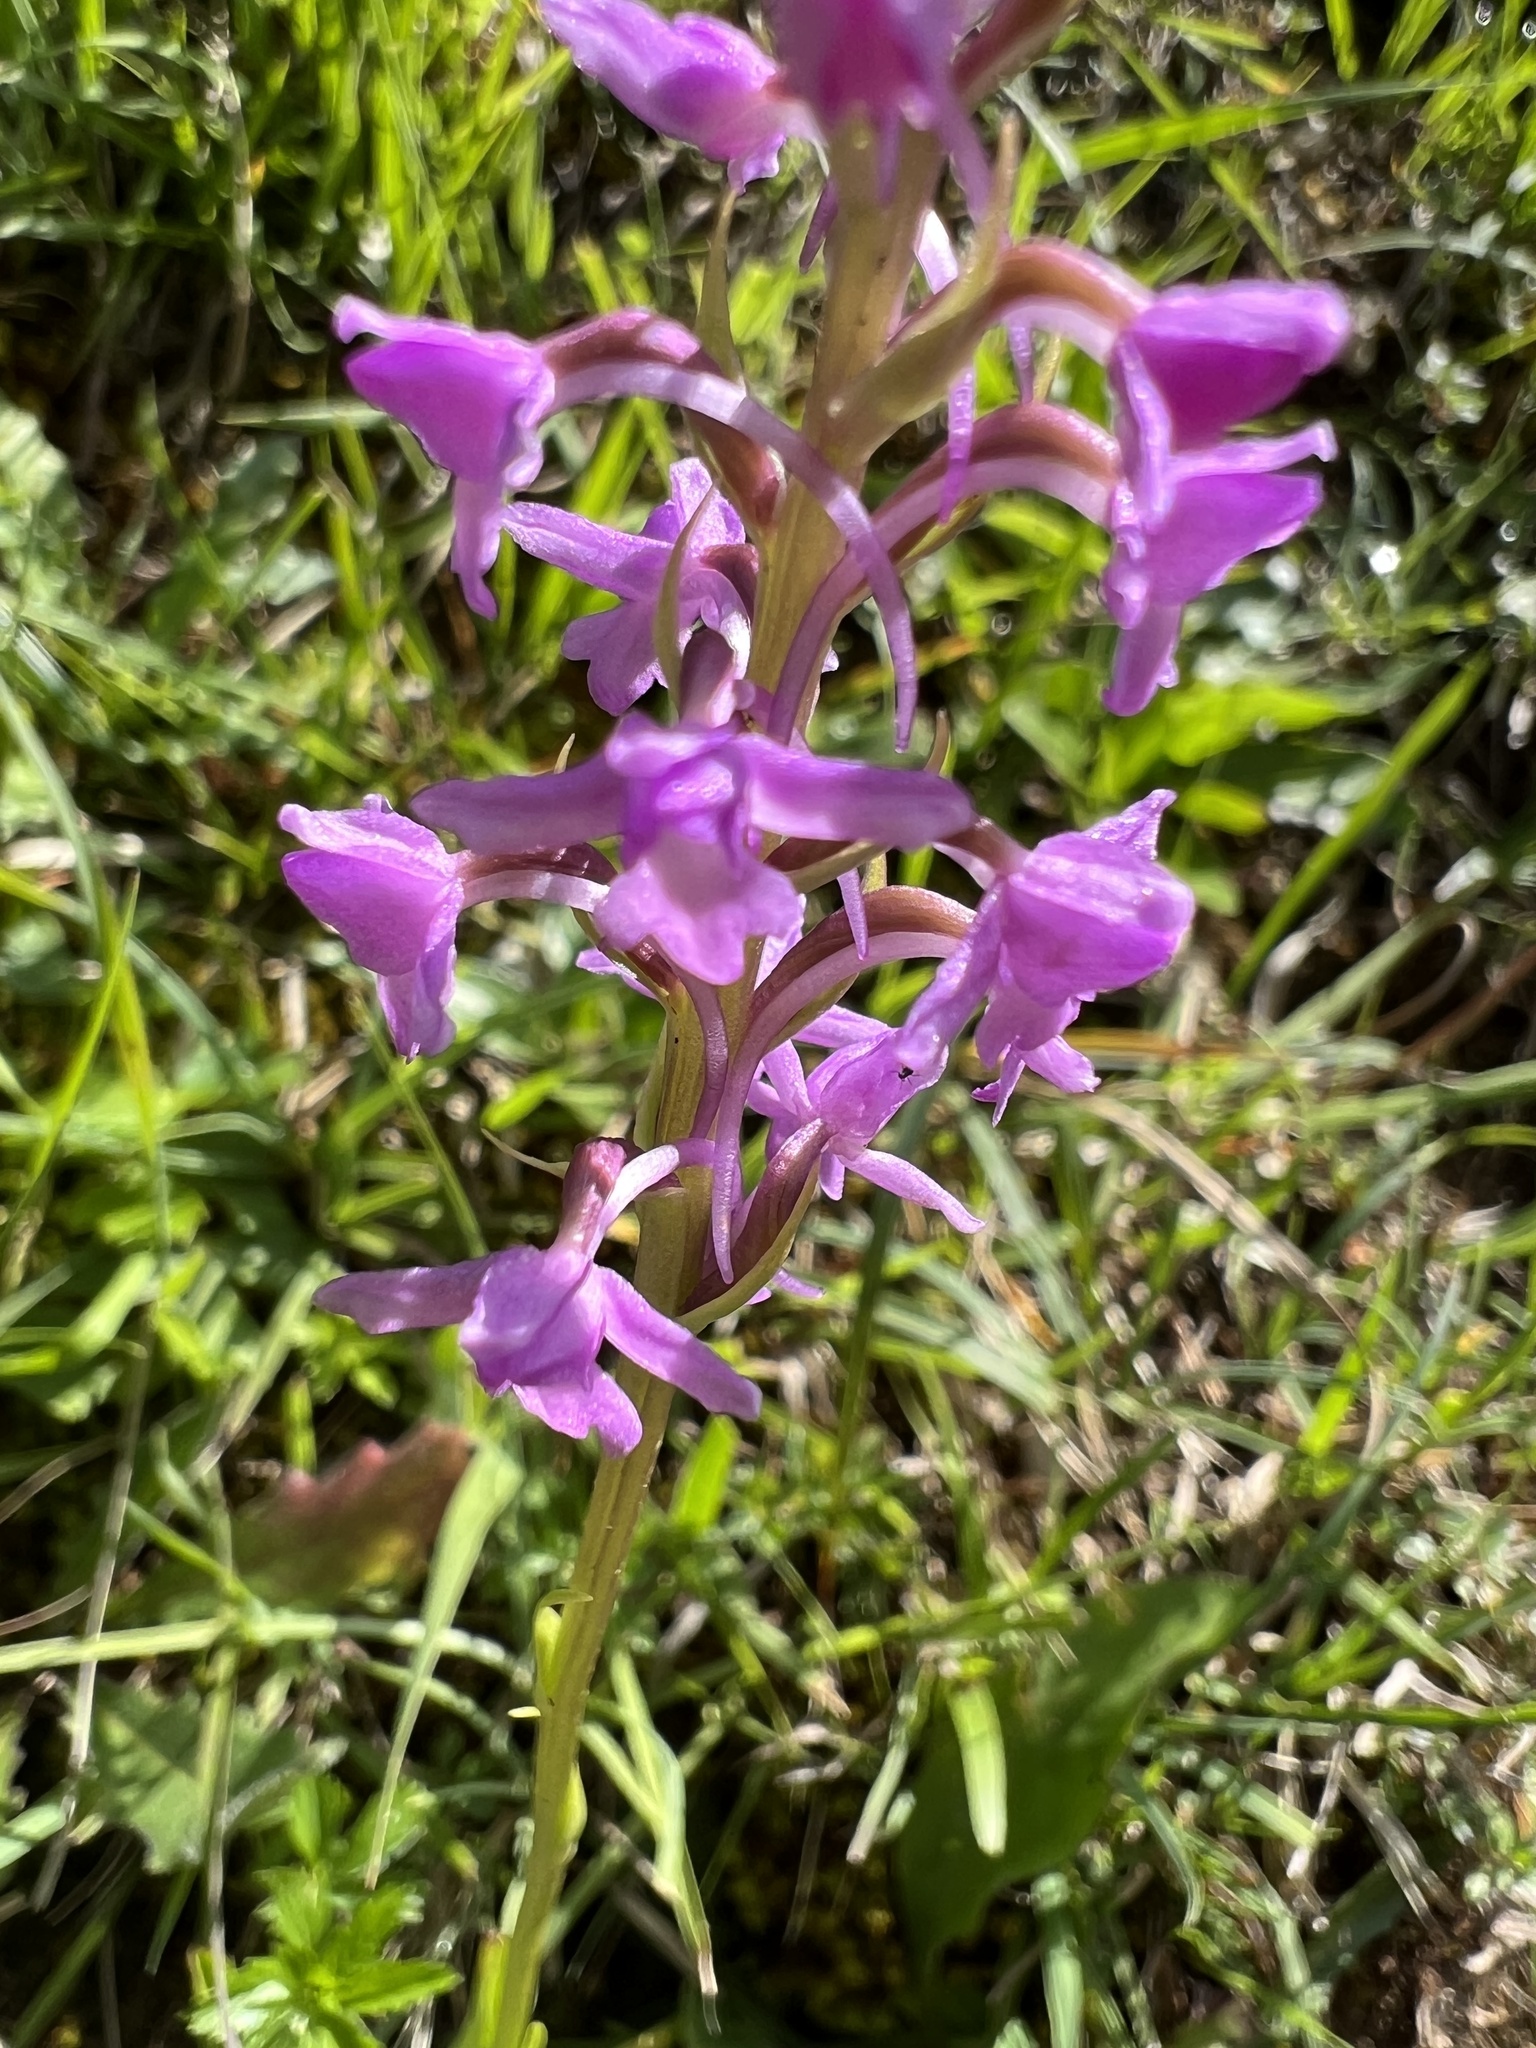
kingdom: Plantae
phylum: Tracheophyta
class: Liliopsida
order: Asparagales
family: Orchidaceae
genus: Gymnadenia
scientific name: Gymnadenia conopsea
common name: Fragrant orchid
